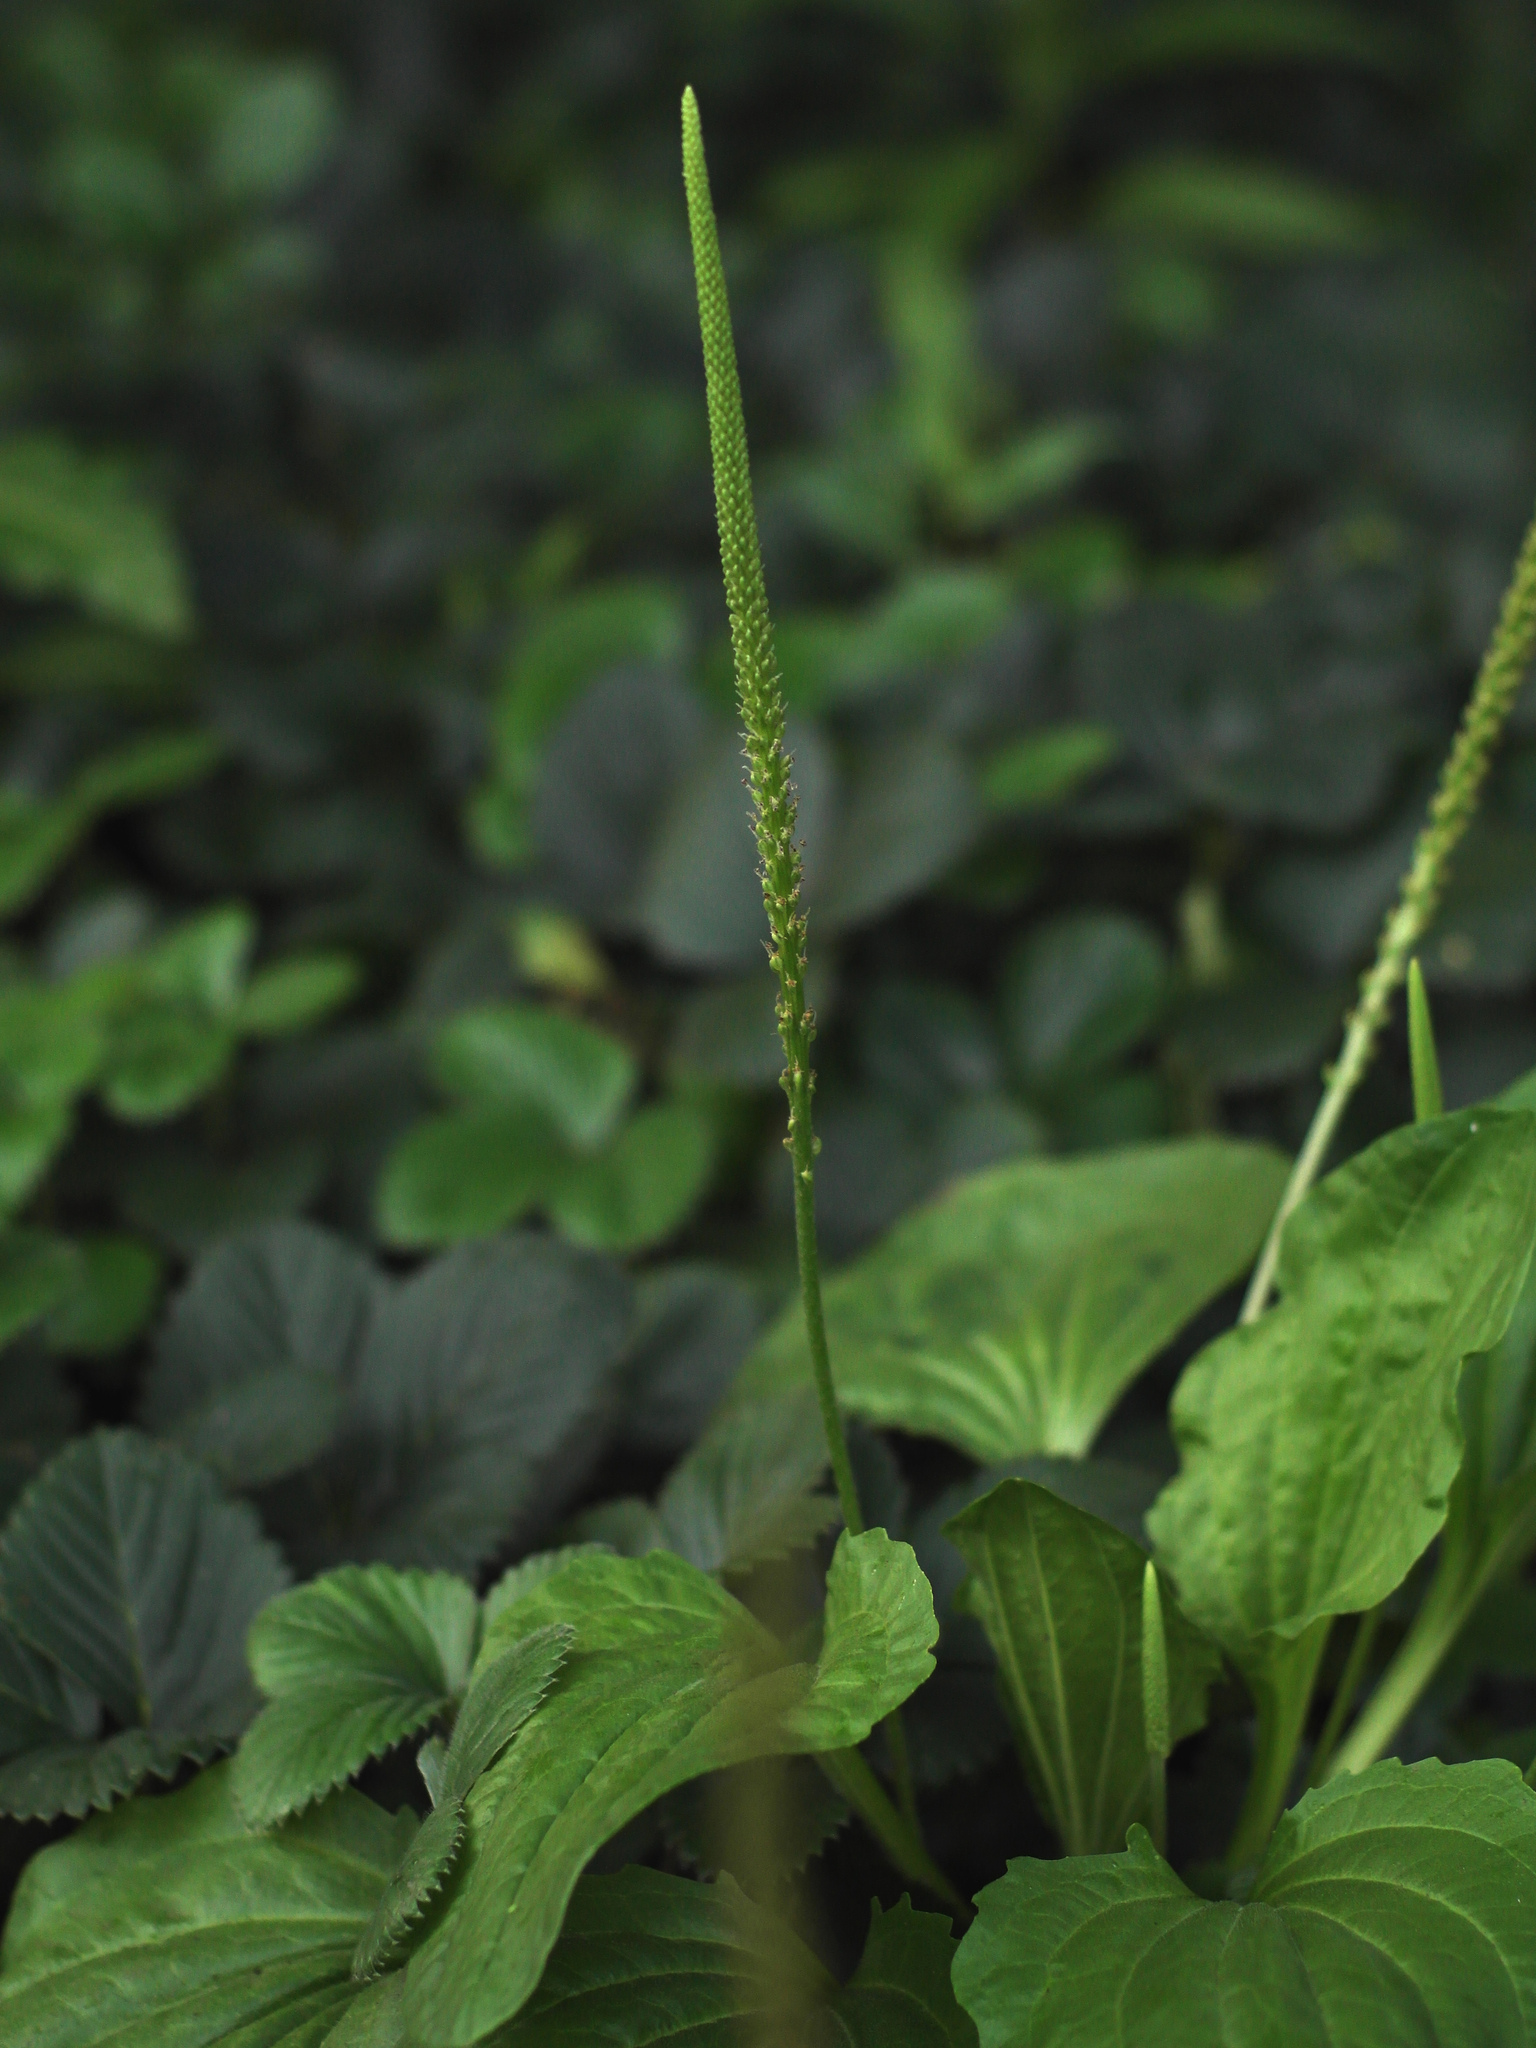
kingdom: Plantae
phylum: Tracheophyta
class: Magnoliopsida
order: Lamiales
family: Plantaginaceae
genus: Plantago
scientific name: Plantago major
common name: Common plantain
